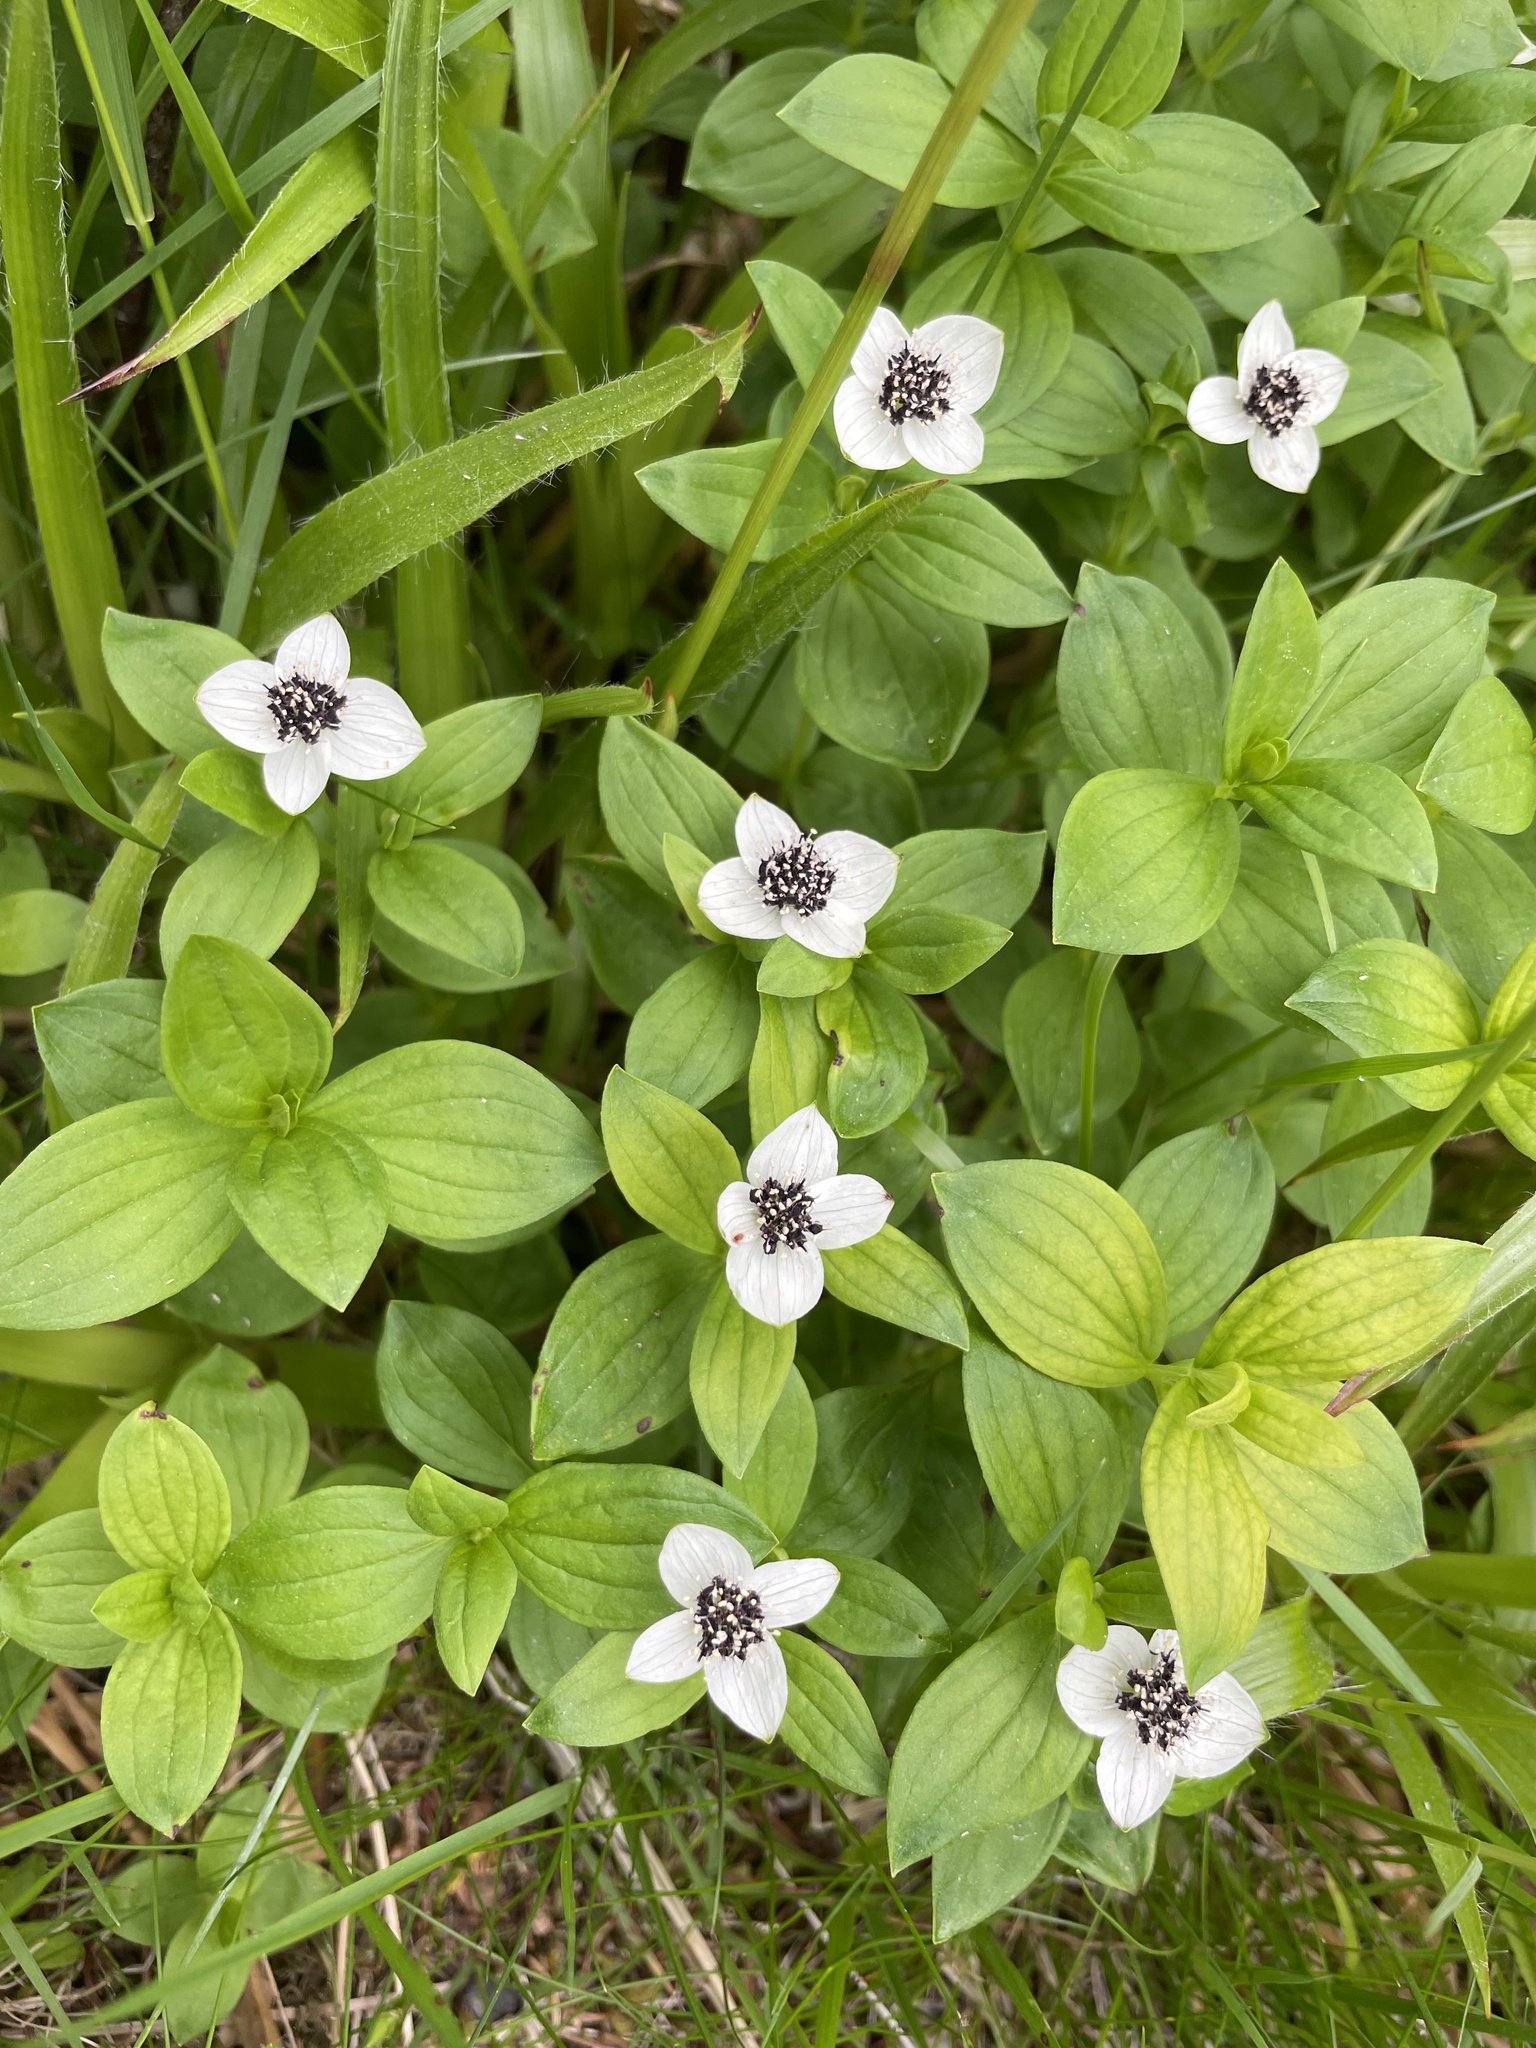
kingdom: Plantae
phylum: Tracheophyta
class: Magnoliopsida
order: Cornales
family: Cornaceae
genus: Cornus
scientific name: Cornus suecica
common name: Dwarf cornel
